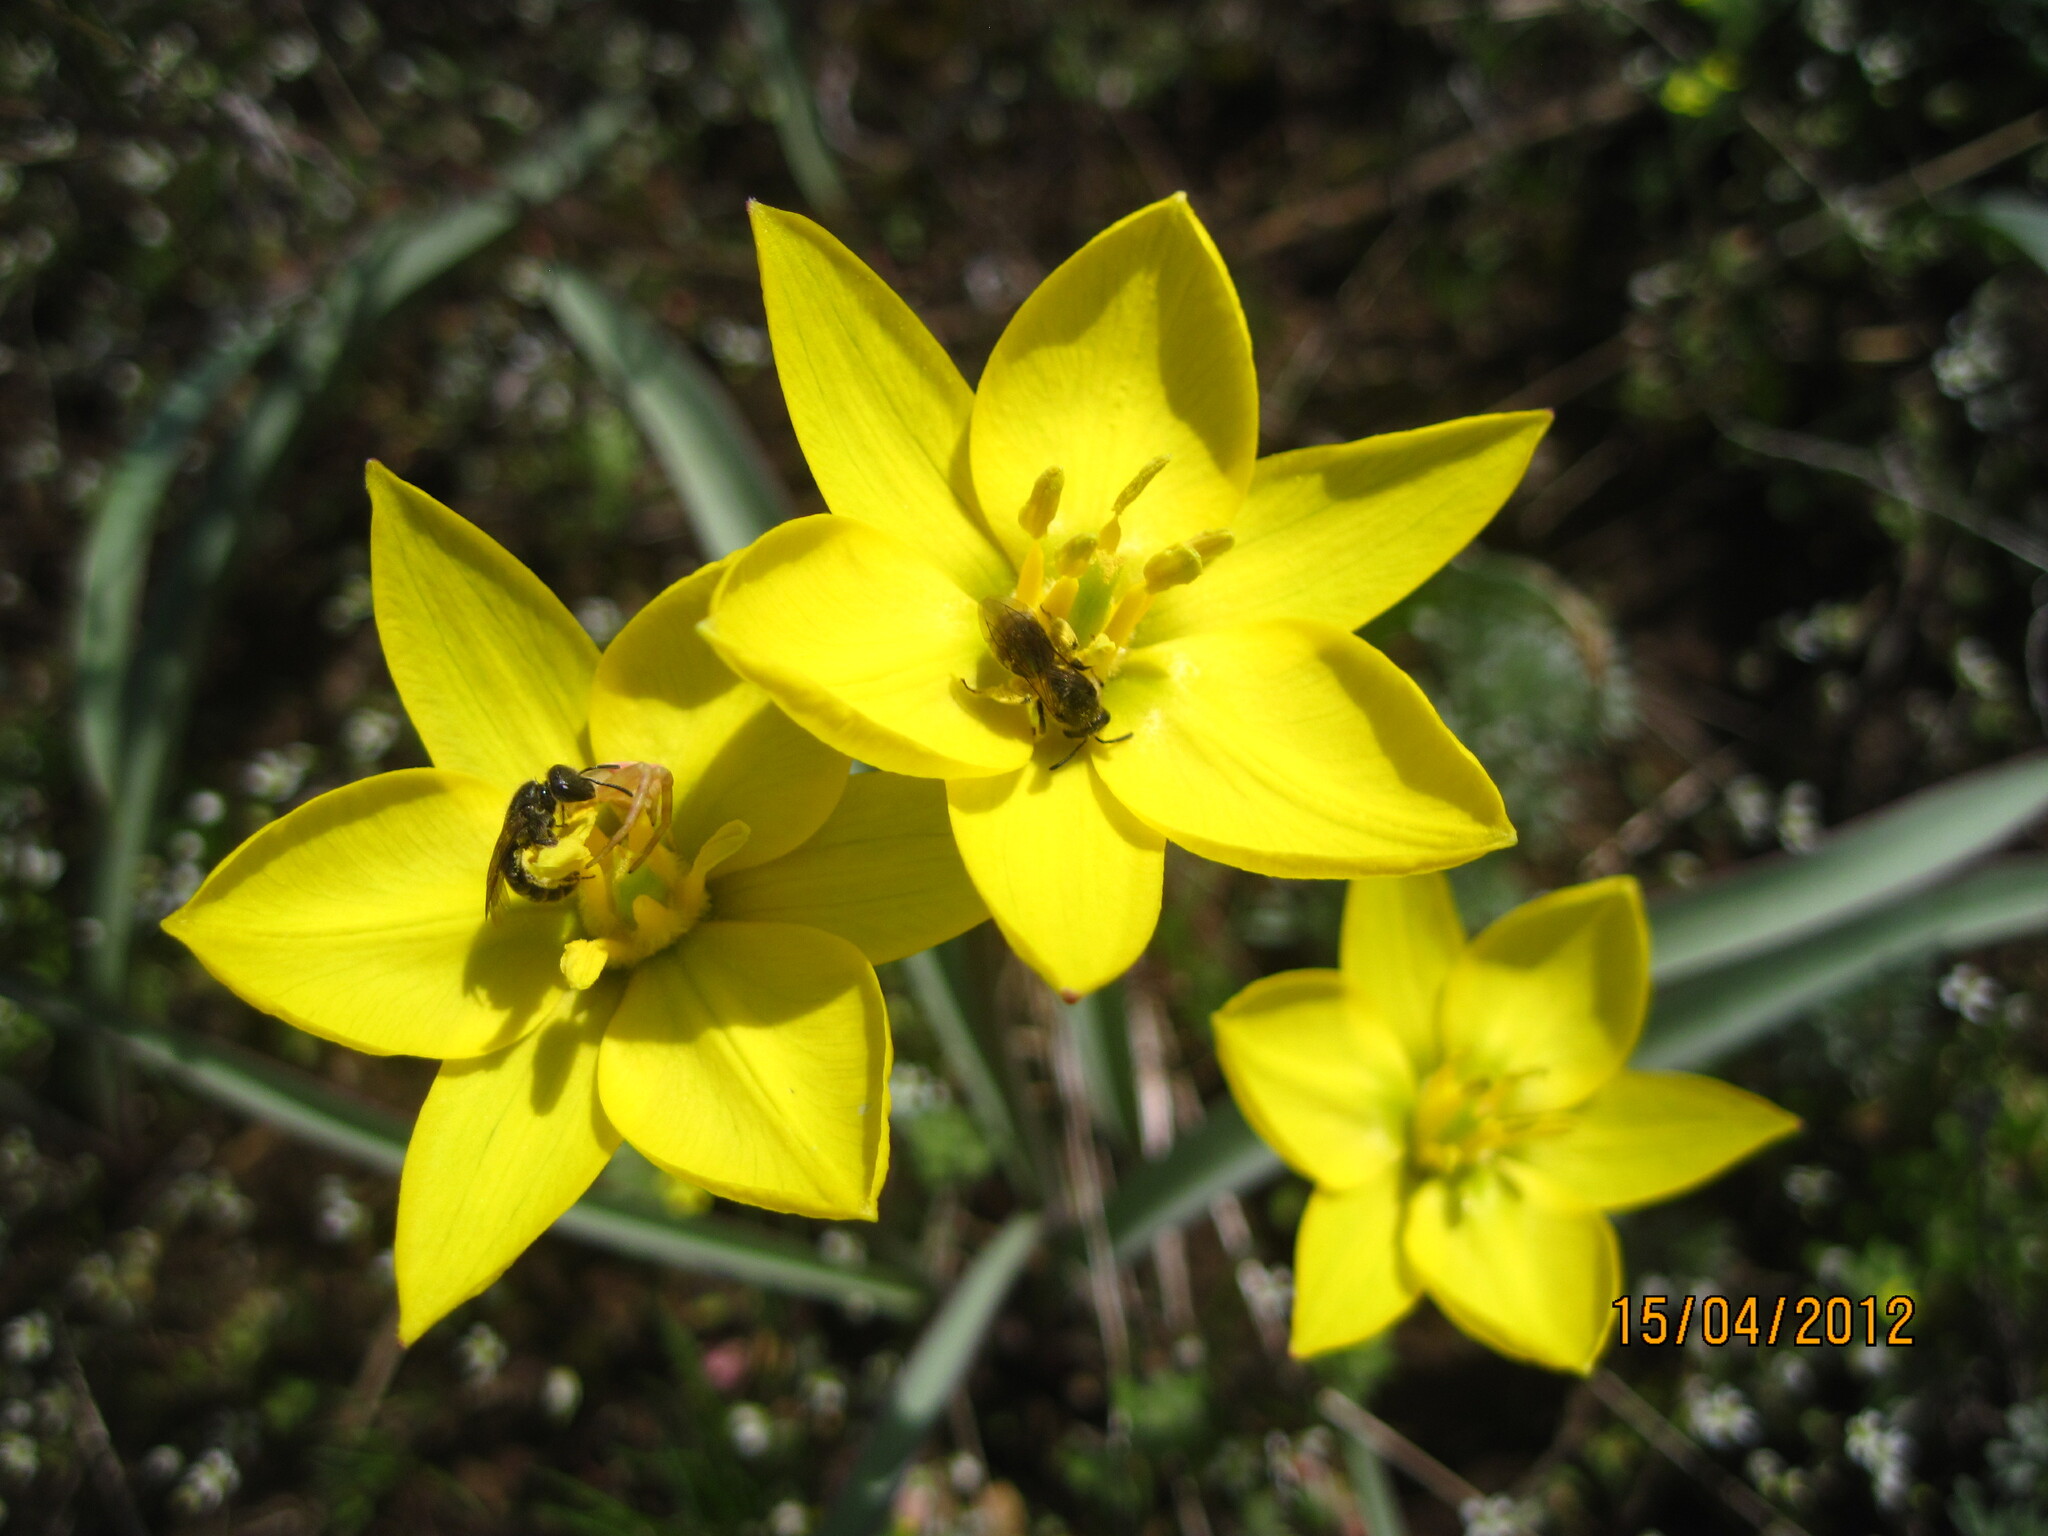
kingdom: Plantae
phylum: Tracheophyta
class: Liliopsida
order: Liliales
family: Liliaceae
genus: Tulipa
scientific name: Tulipa sylvestris
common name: Wild tulip
